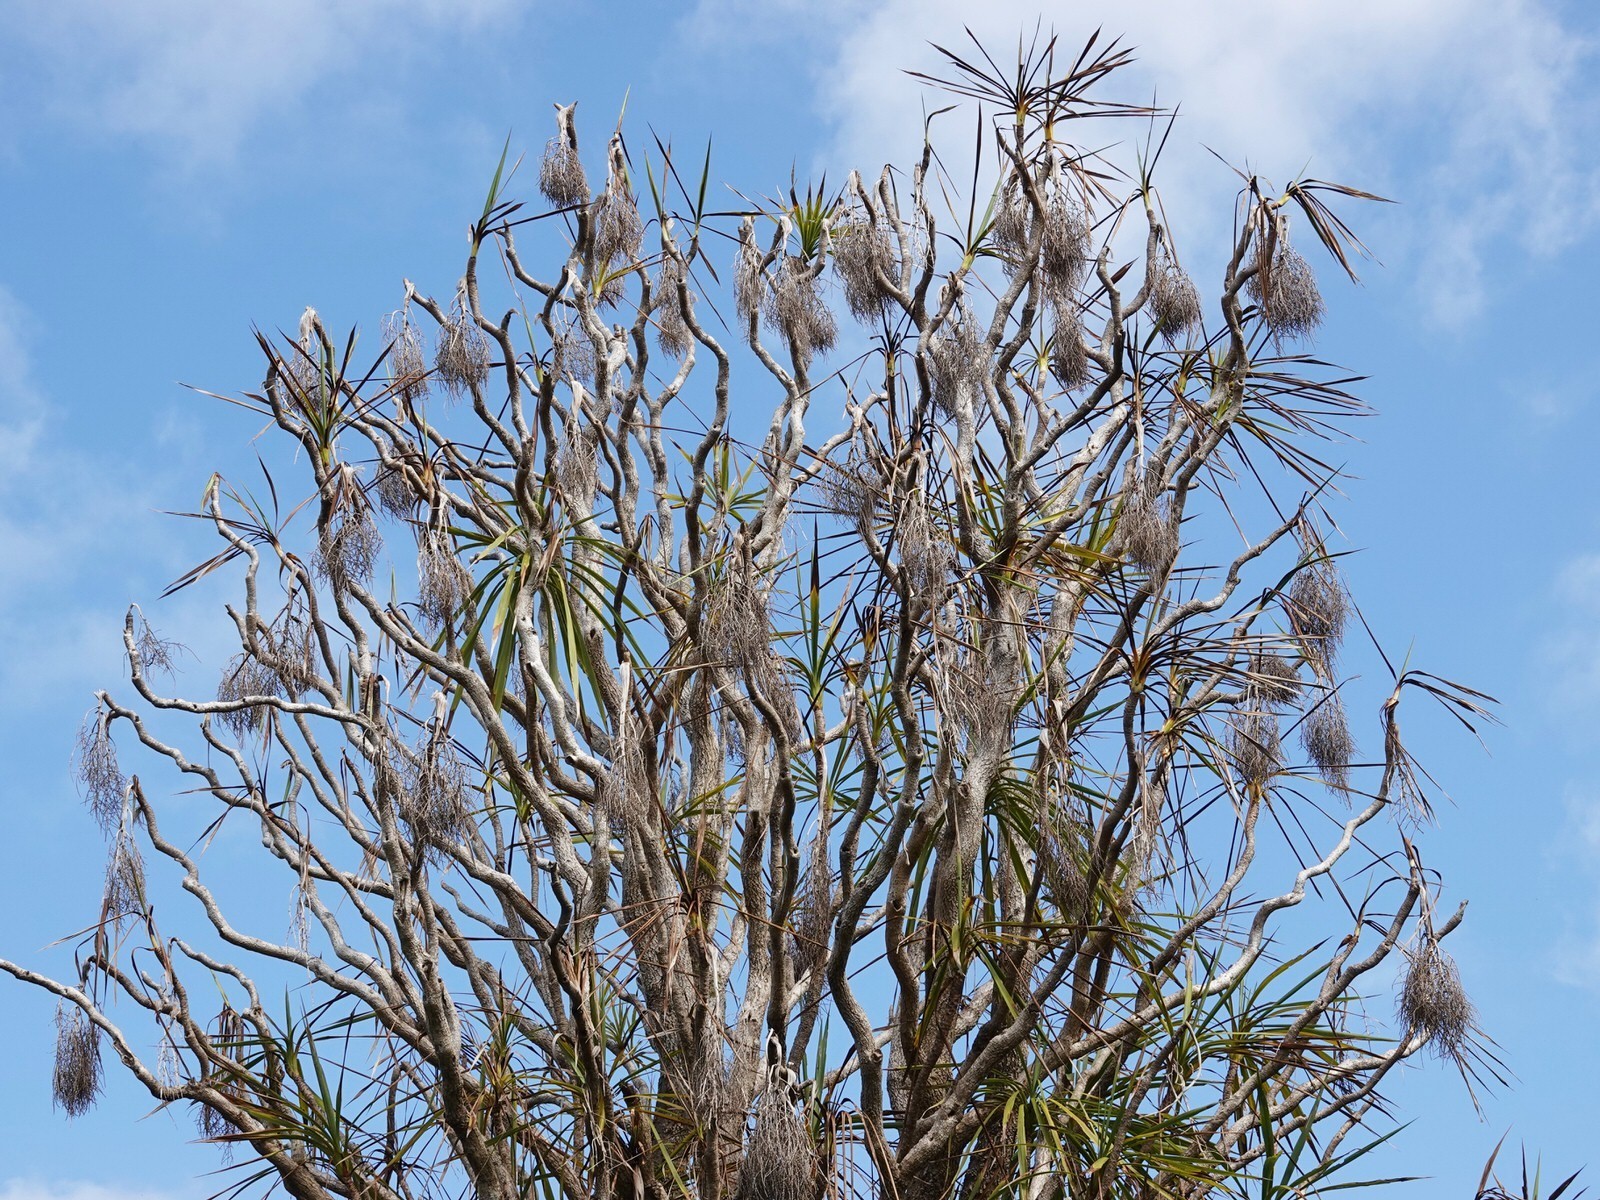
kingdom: Plantae
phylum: Tracheophyta
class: Liliopsida
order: Asparagales
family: Asparagaceae
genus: Cordyline
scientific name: Cordyline australis
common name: Cabbage-palm
